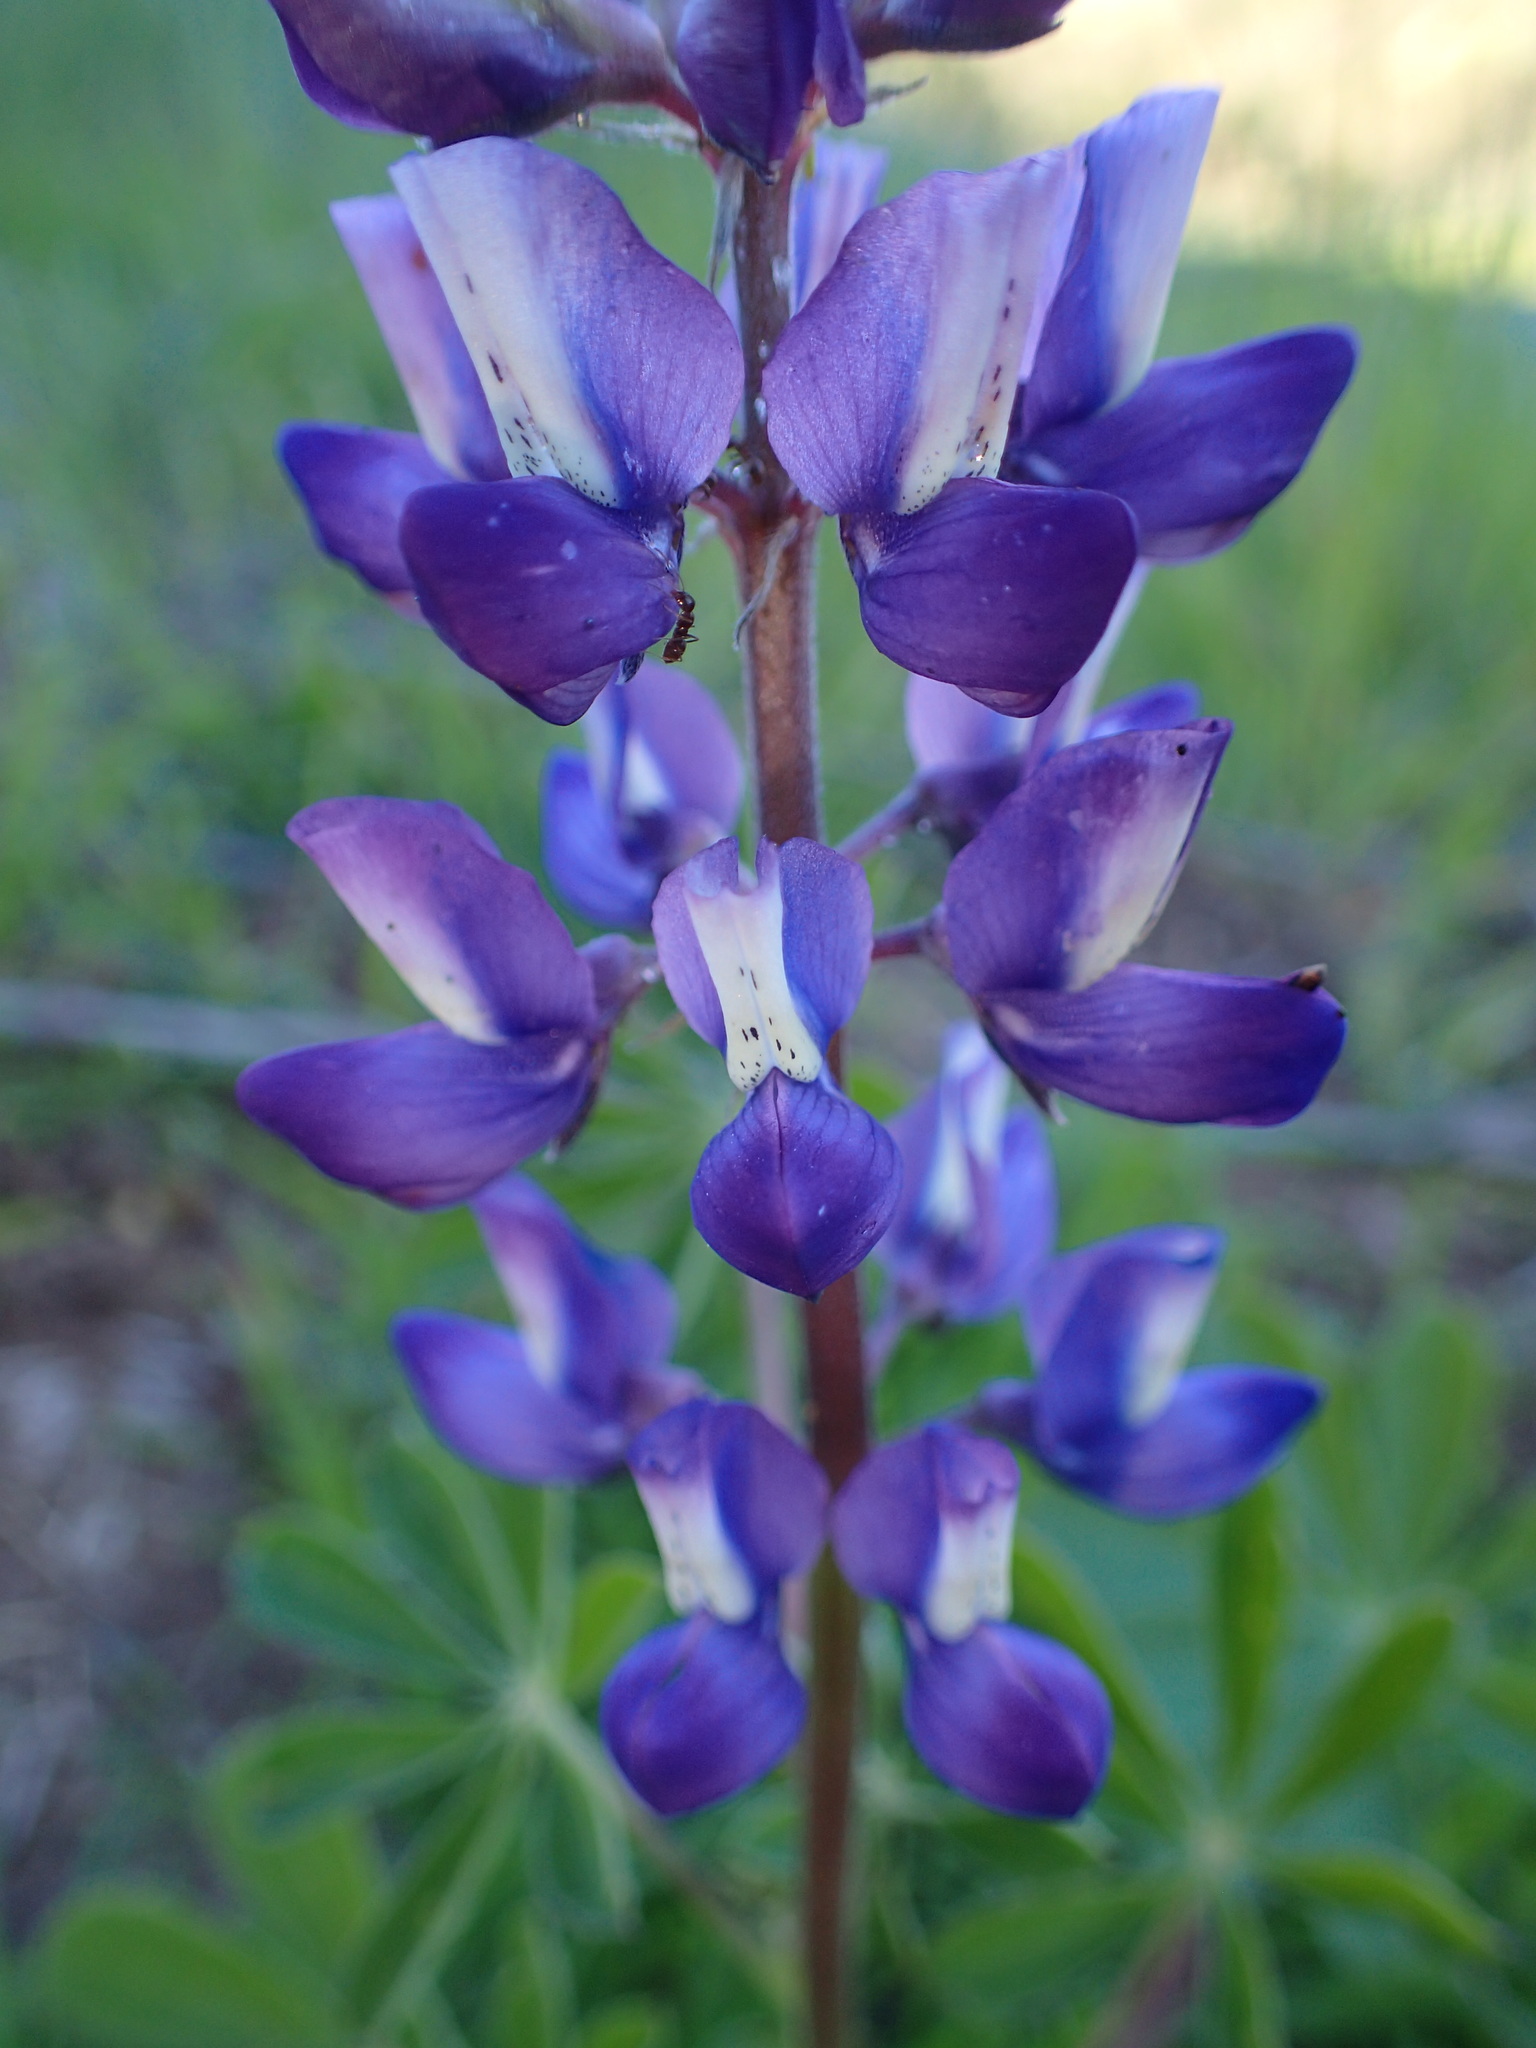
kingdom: Plantae
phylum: Tracheophyta
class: Magnoliopsida
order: Fabales
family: Fabaceae
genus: Lupinus
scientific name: Lupinus succulentus
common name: Arroyo lupine
